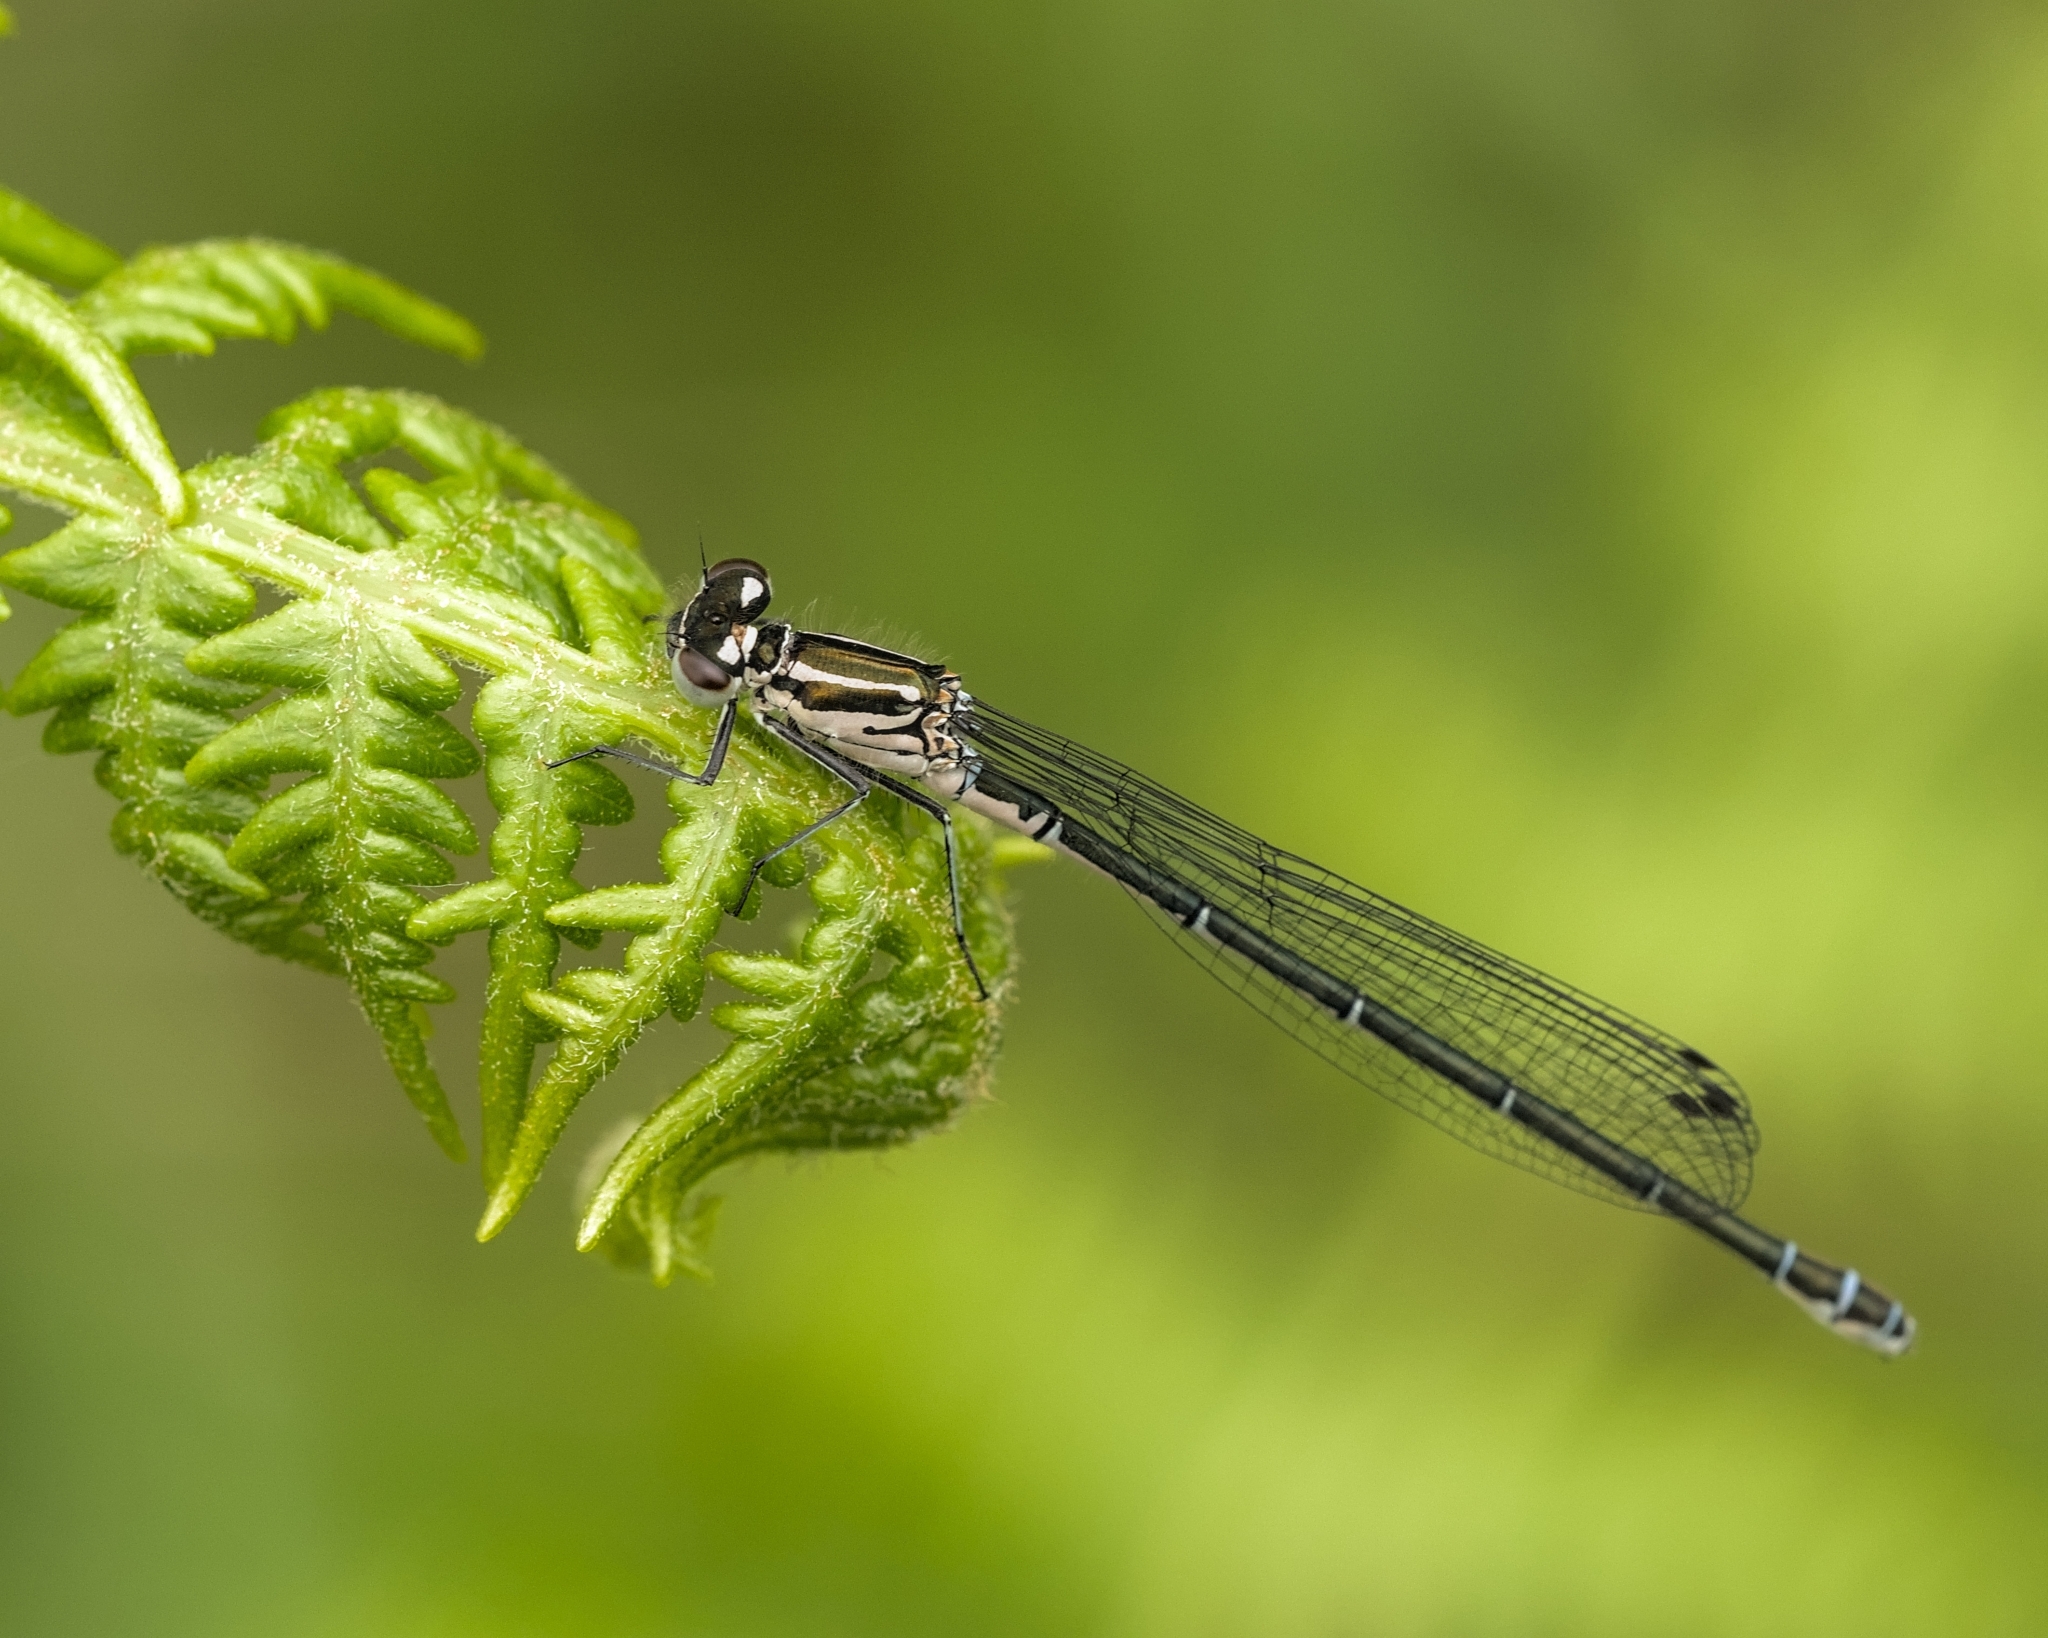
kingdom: Animalia
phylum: Arthropoda
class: Insecta
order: Odonata
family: Coenagrionidae
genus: Coenagrion
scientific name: Coenagrion puella
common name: Azure damselfly
